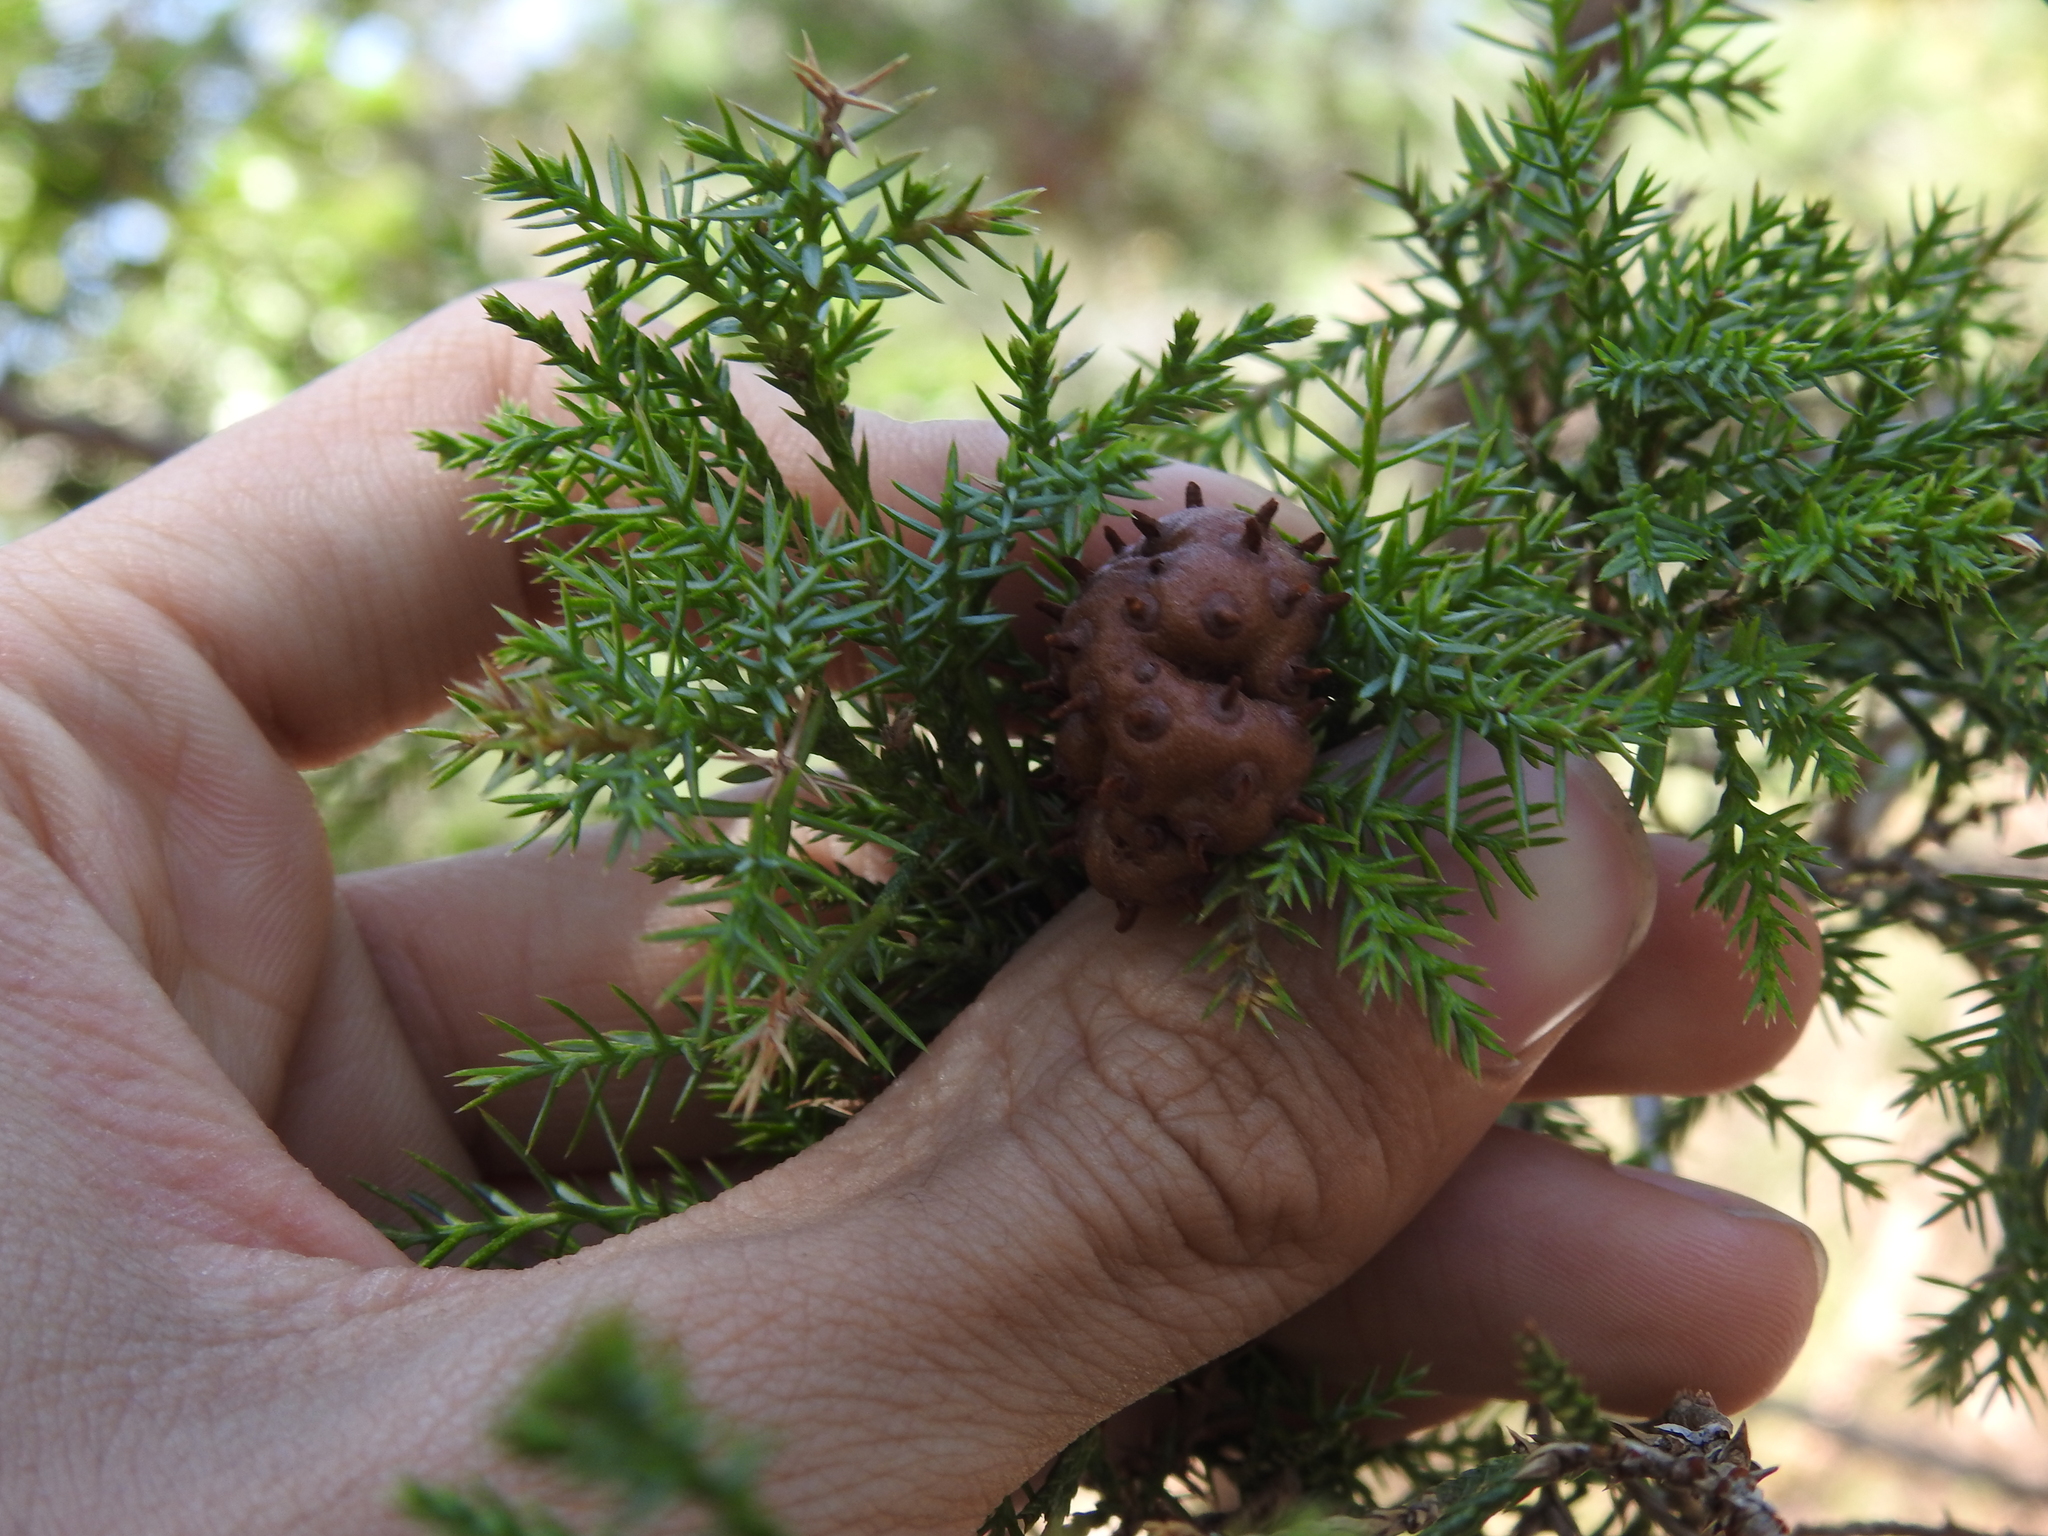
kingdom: Fungi
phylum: Basidiomycota
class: Pucciniomycetes
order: Pucciniales
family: Gymnosporangiaceae
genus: Gymnosporangium
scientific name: Gymnosporangium juniperi-virginianae
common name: Juniper-apple rust
